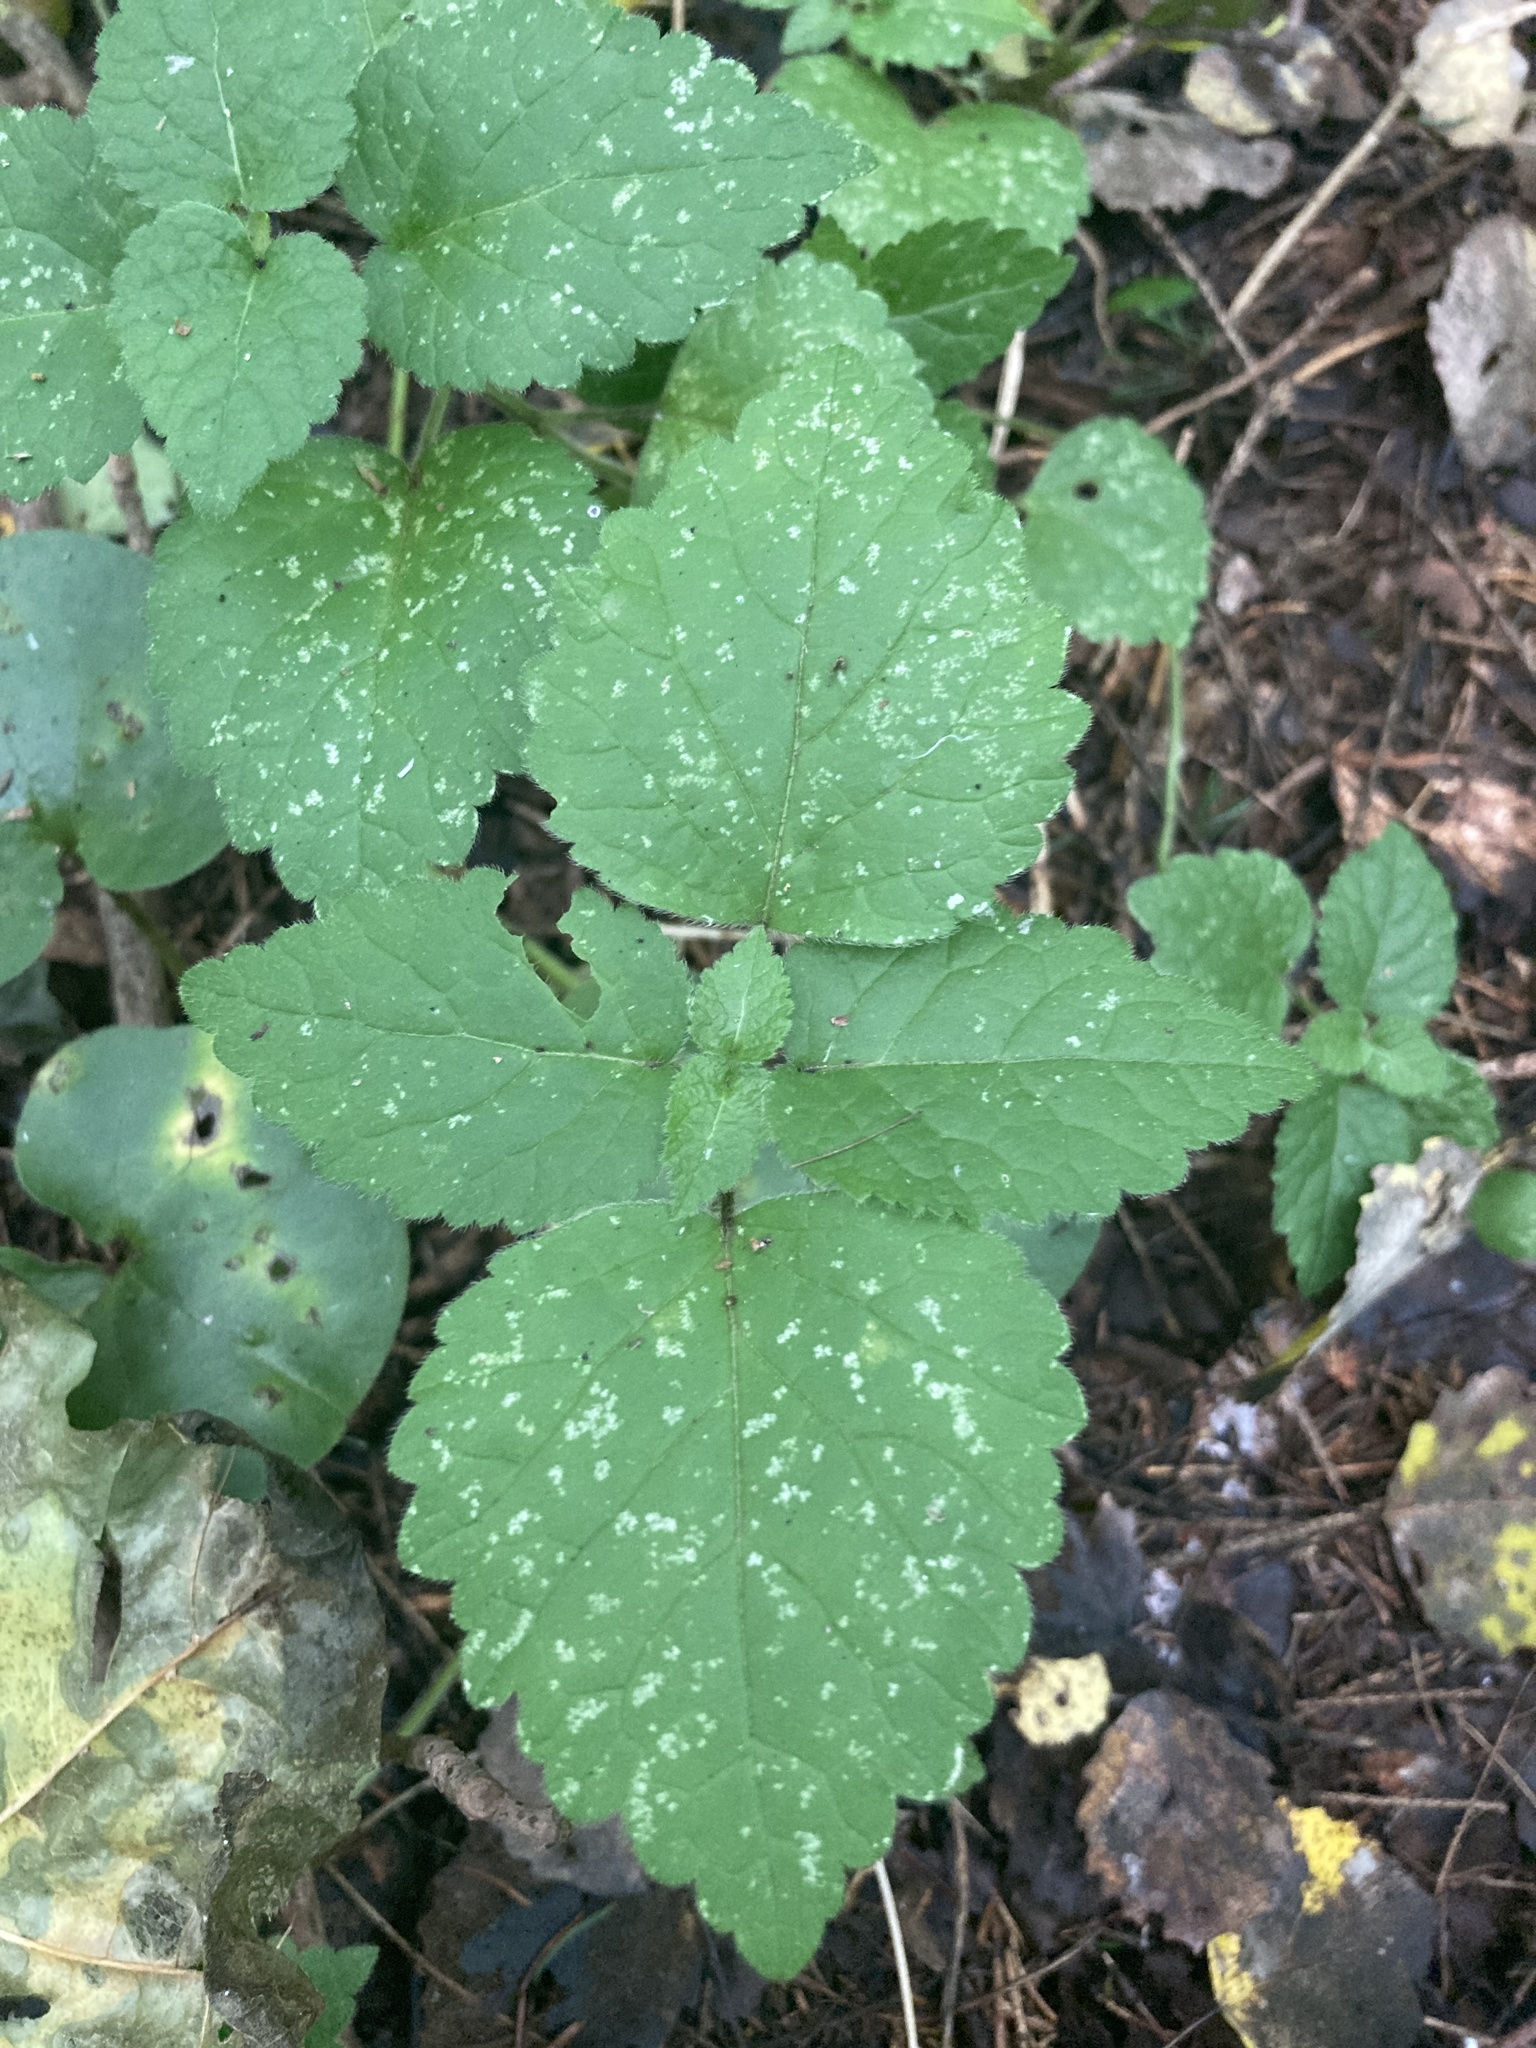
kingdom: Plantae
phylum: Tracheophyta
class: Magnoliopsida
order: Lamiales
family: Lamiaceae
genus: Lamium
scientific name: Lamium galeobdolon
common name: Yellow archangel
